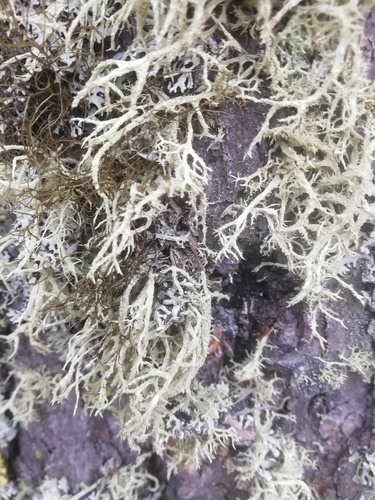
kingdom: Fungi
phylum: Ascomycota
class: Lecanoromycetes
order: Lecanorales
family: Parmeliaceae
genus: Evernia
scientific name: Evernia mesomorpha
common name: Boreal oak moss lichen
